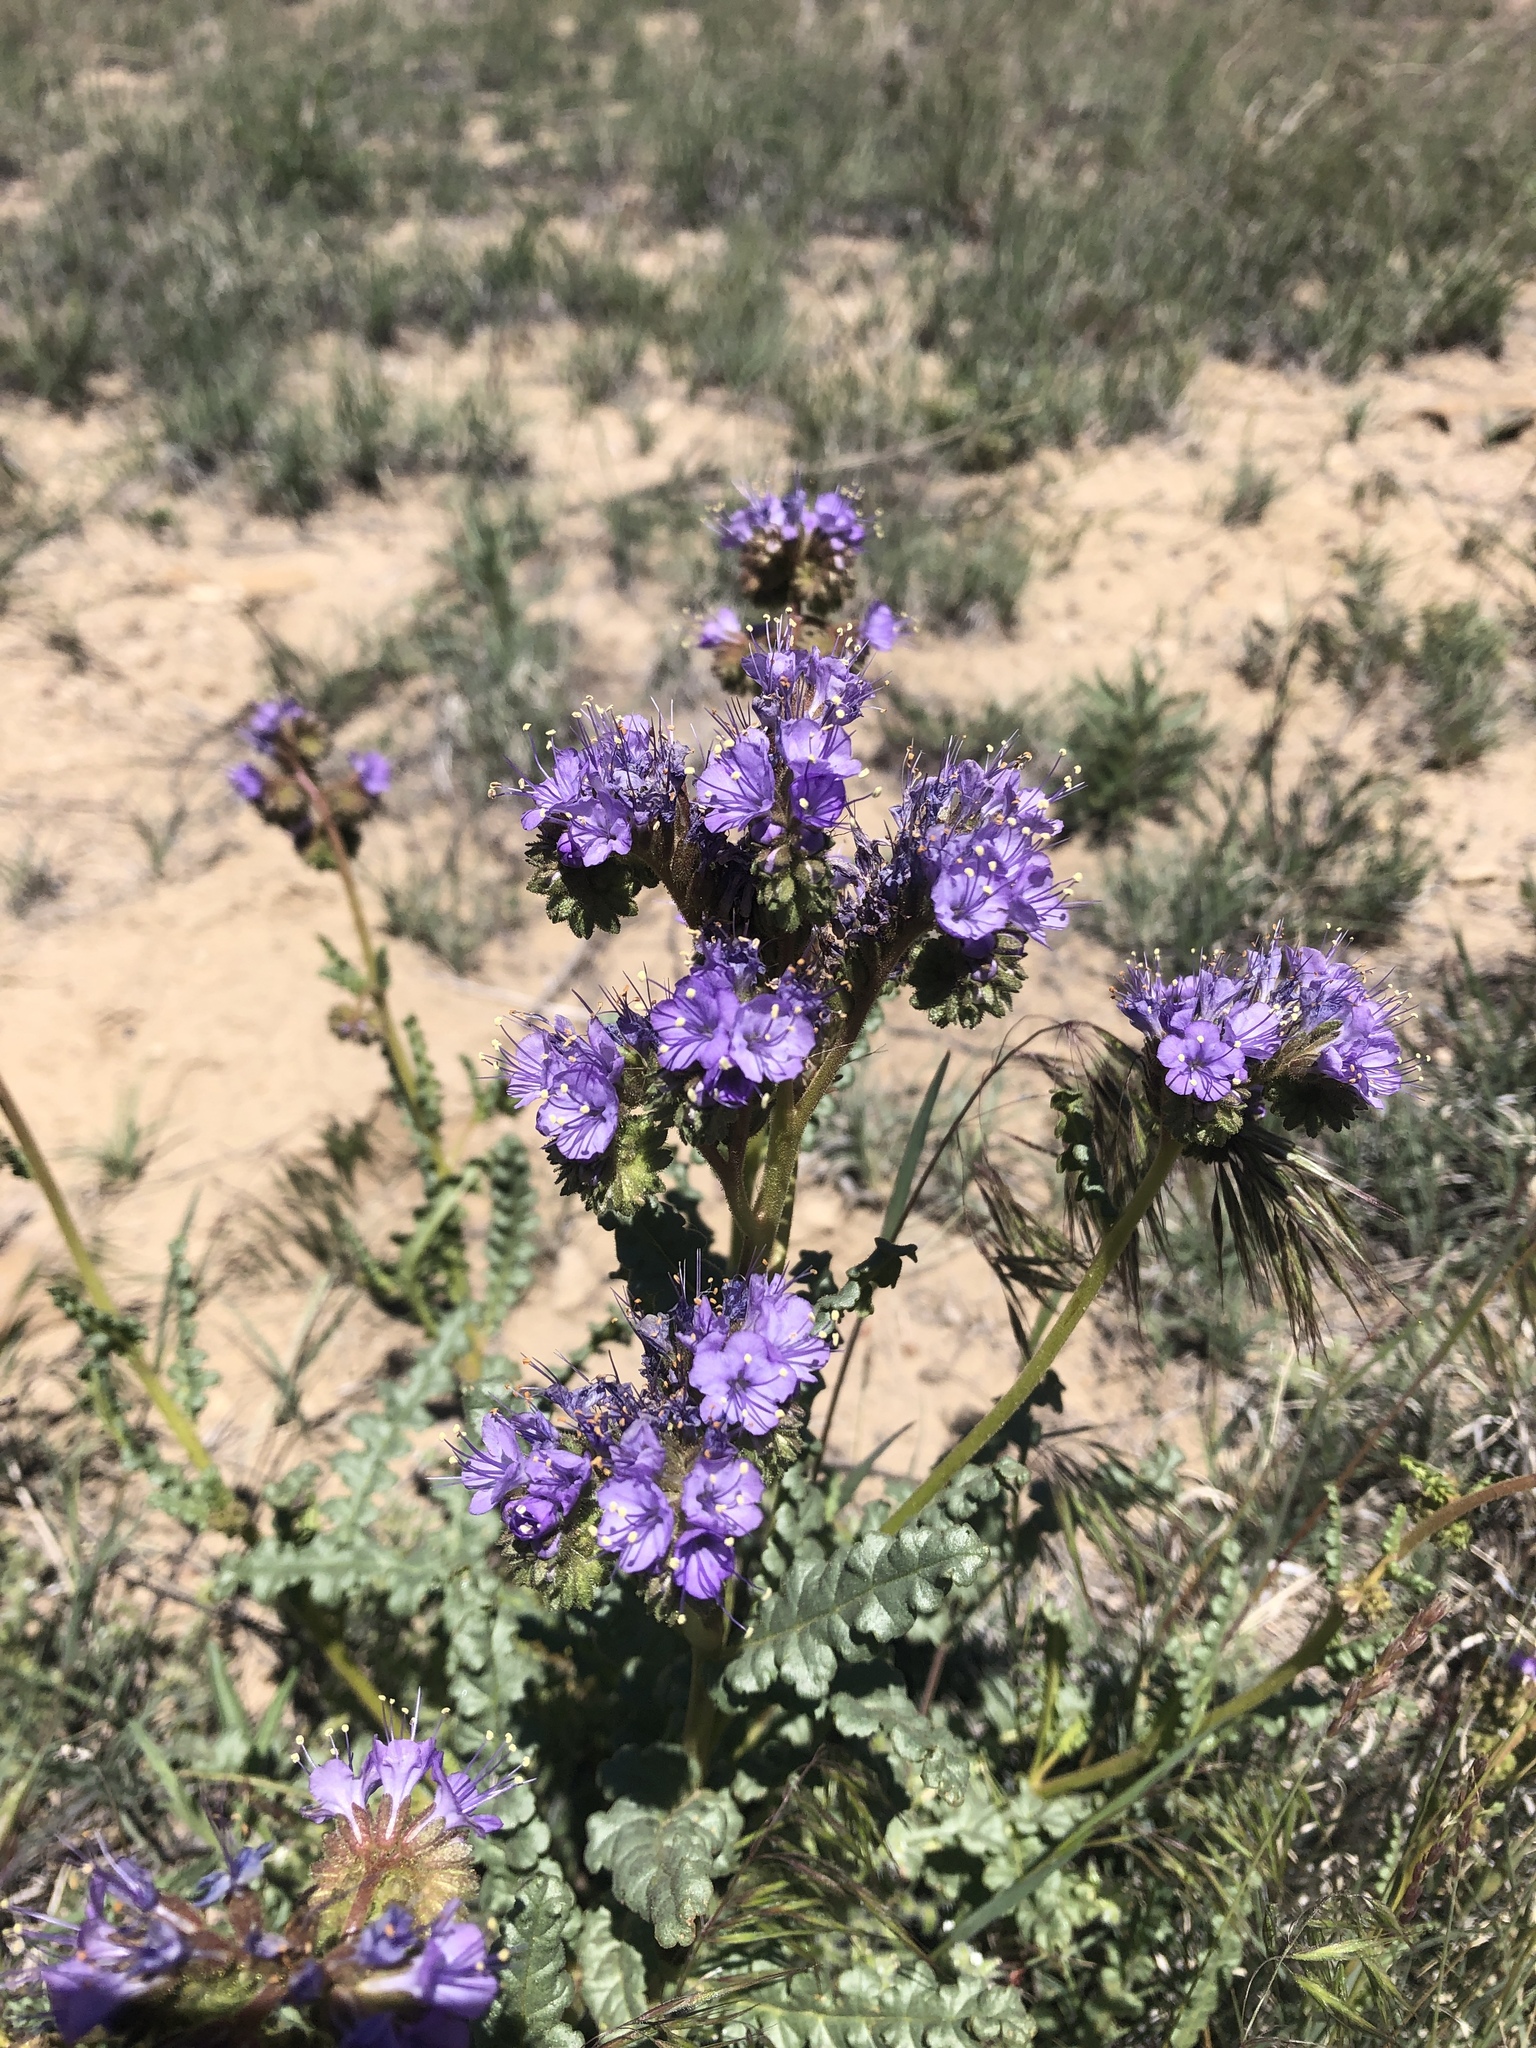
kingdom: Plantae
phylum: Tracheophyta
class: Magnoliopsida
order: Boraginales
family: Hydrophyllaceae
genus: Phacelia
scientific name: Phacelia crenulata
